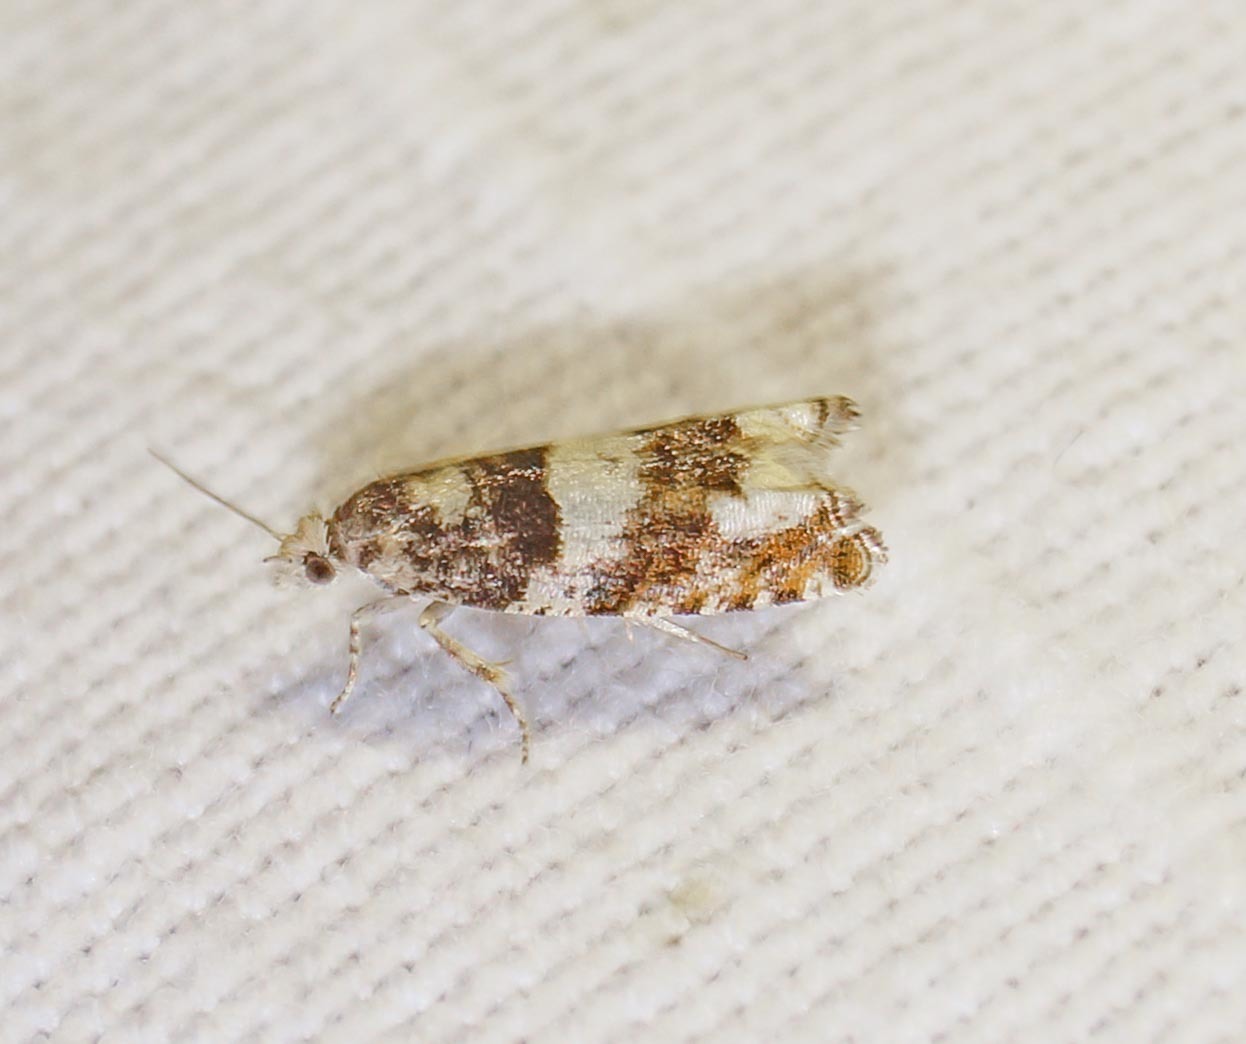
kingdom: Animalia
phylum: Arthropoda
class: Insecta
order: Lepidoptera
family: Tortricidae
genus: Epinotia
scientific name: Epinotia demarniana
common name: Birch bell
